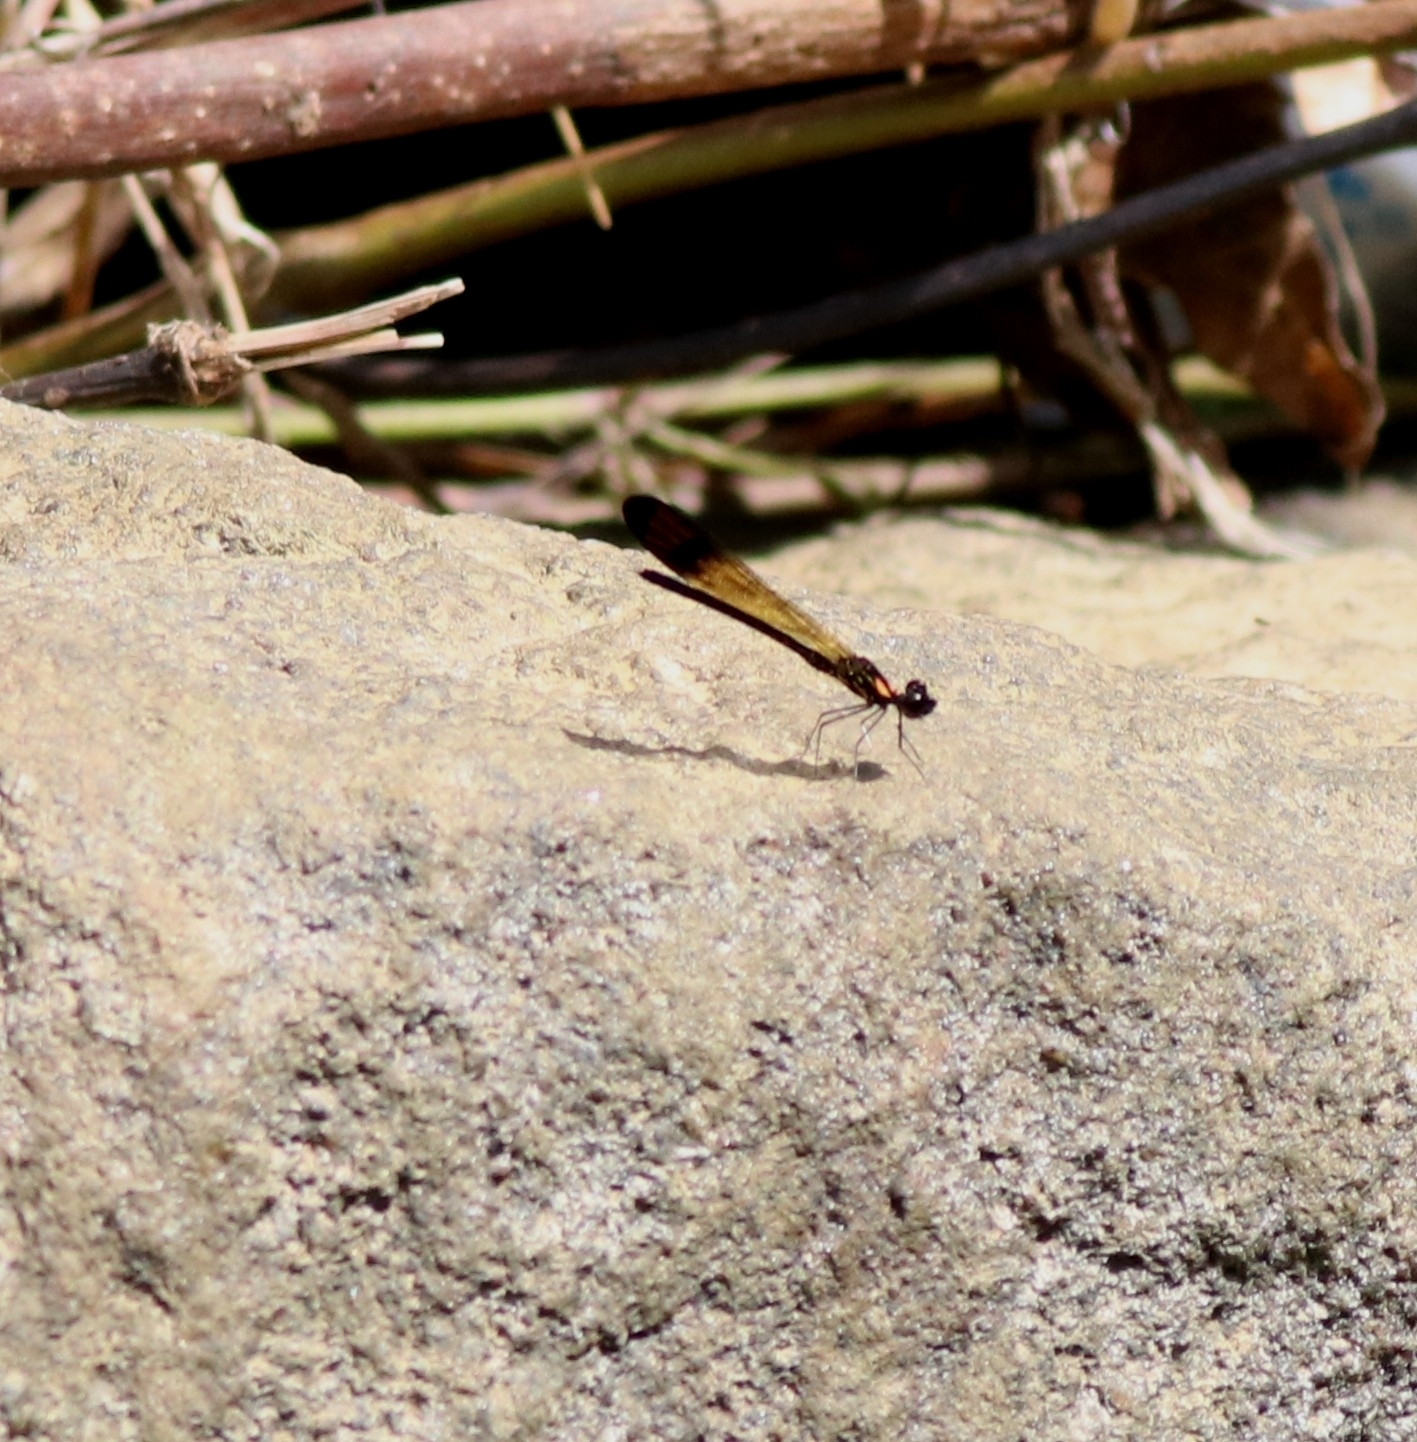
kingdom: Animalia
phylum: Arthropoda
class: Insecta
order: Odonata
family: Chlorocyphidae
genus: Heliocypha
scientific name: Heliocypha bisignata
